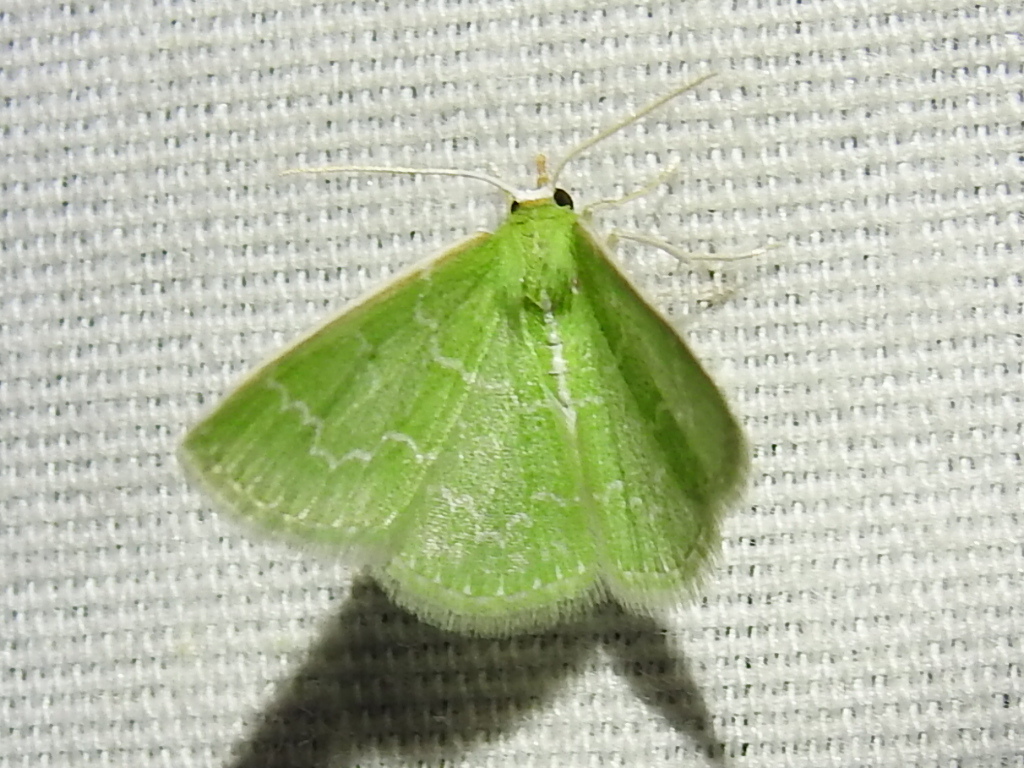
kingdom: Animalia
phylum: Arthropoda
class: Insecta
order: Lepidoptera
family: Geometridae
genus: Synchlora
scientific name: Synchlora frondaria
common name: Southern emerald
